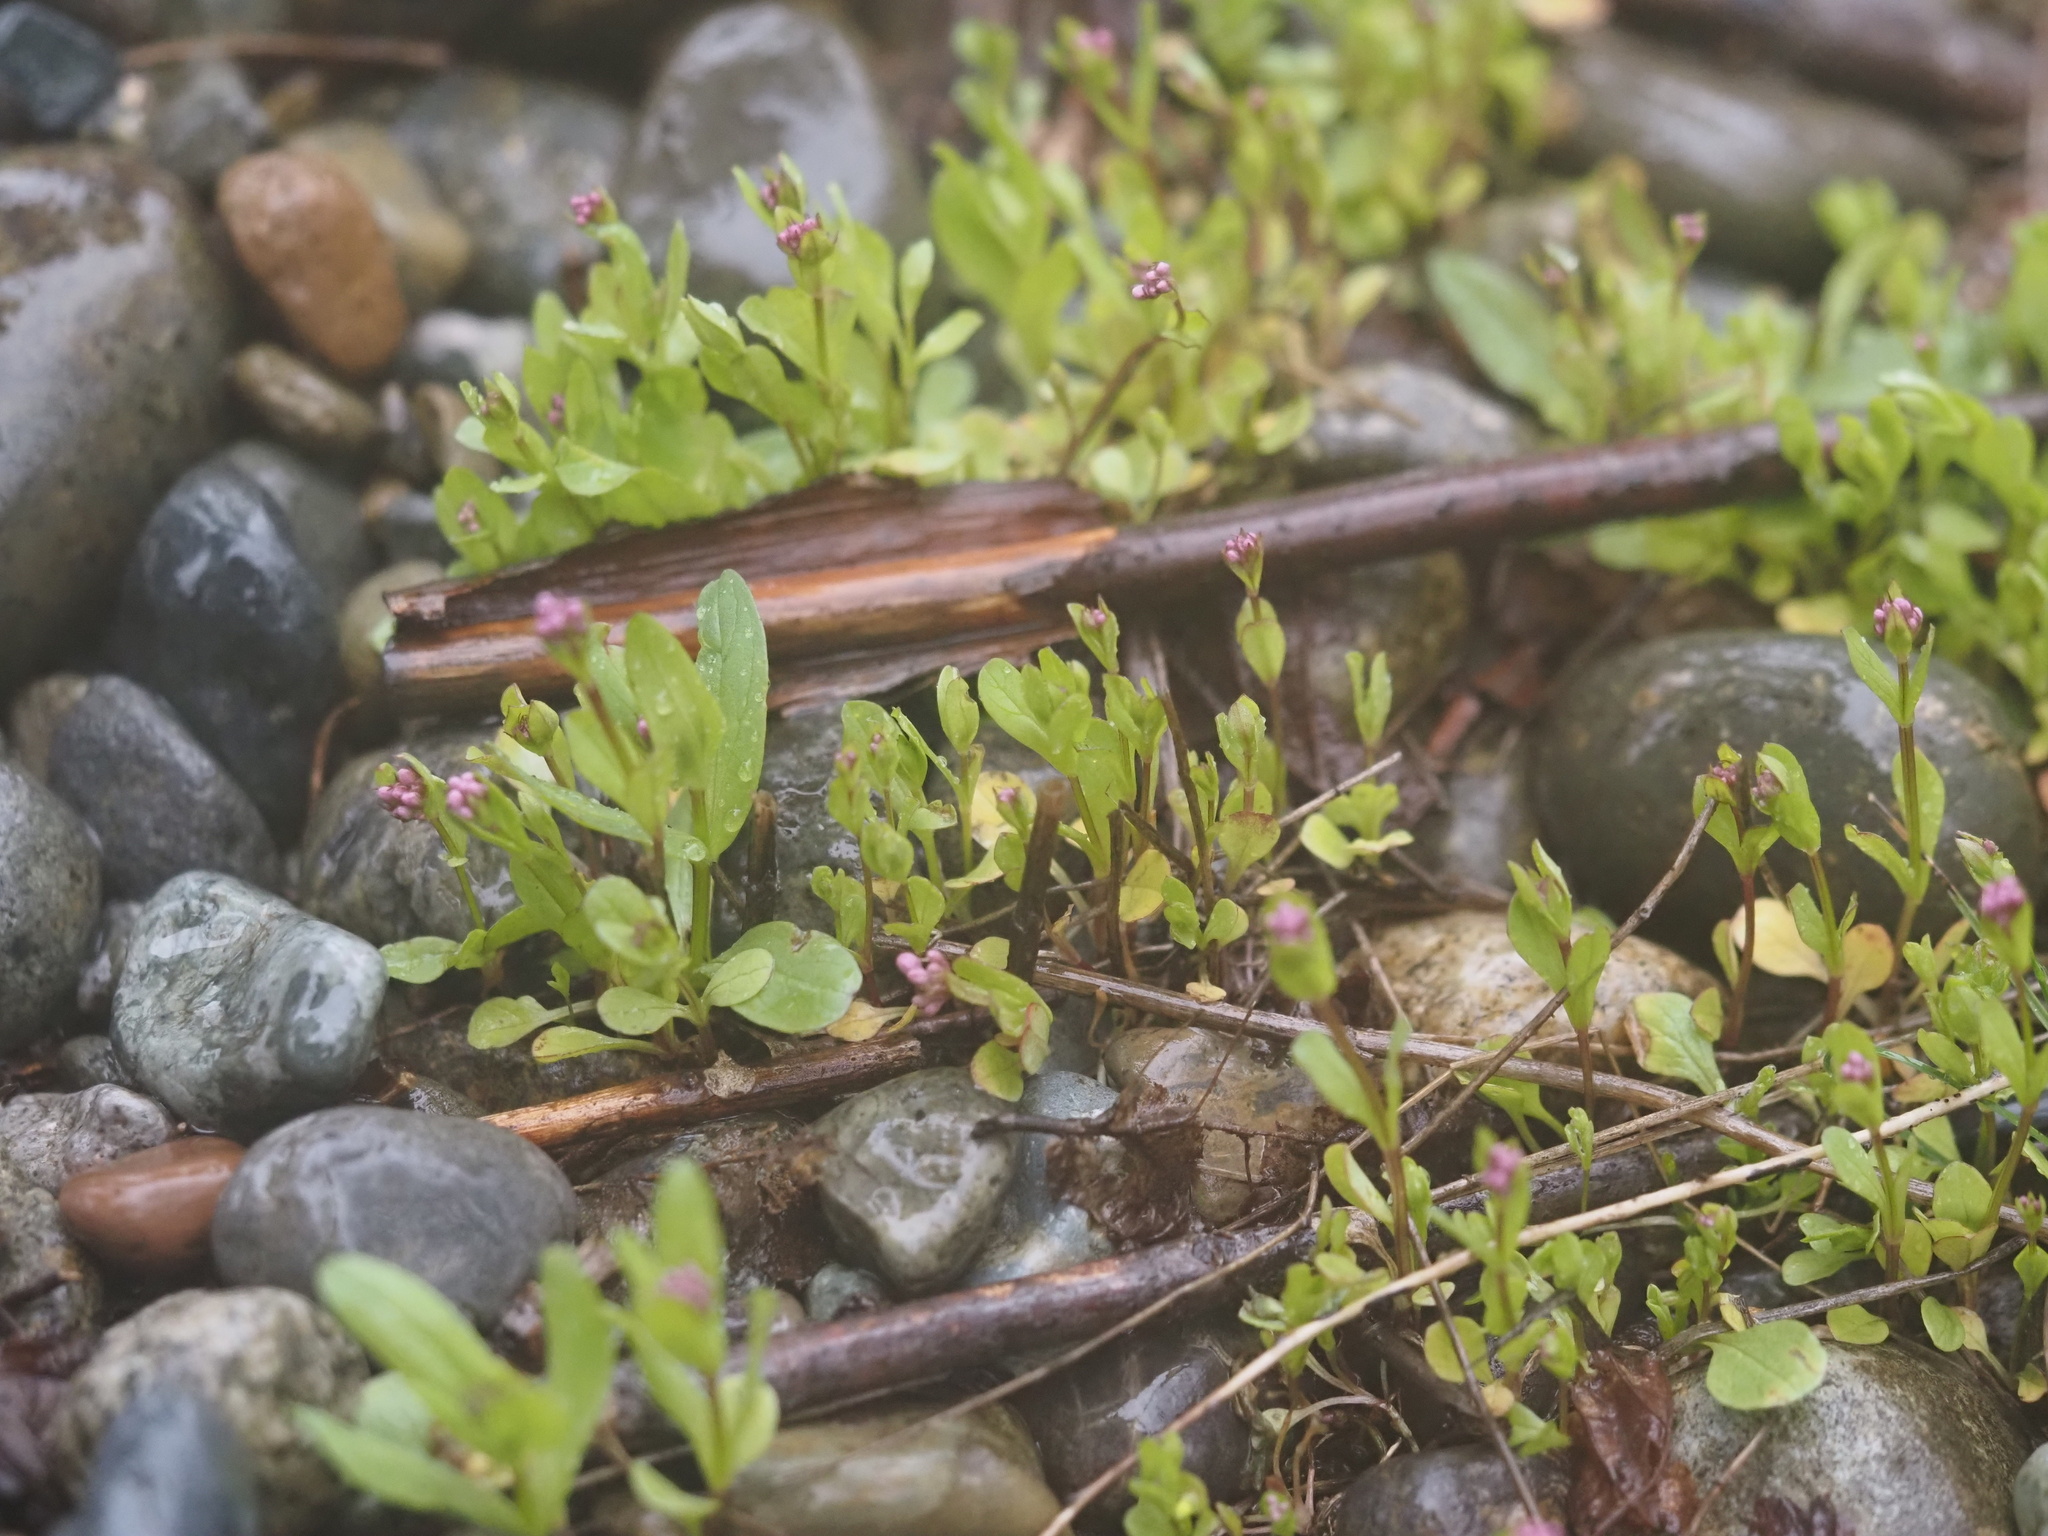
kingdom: Plantae
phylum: Tracheophyta
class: Magnoliopsida
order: Dipsacales
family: Caprifoliaceae
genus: Plectritis
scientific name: Plectritis congesta
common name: Pink plectritis
